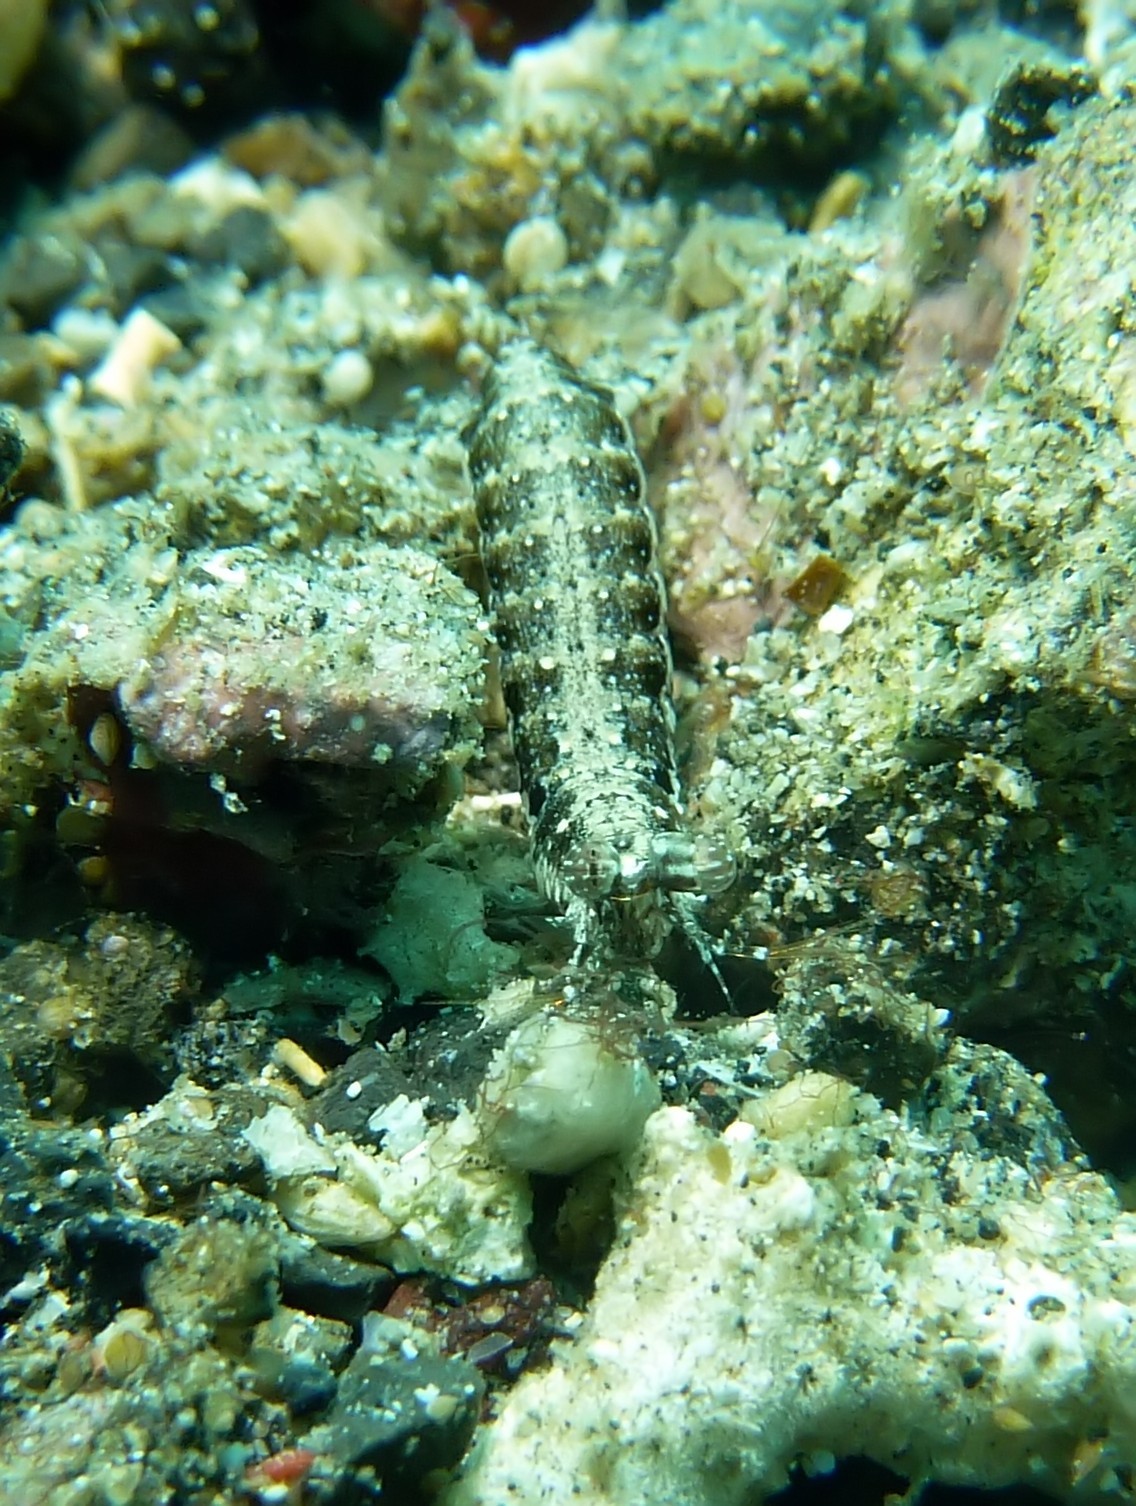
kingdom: Animalia
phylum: Arthropoda
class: Malacostraca
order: Stomatopoda
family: Pseudosquillidae
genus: Pseudosquilla
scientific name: Pseudosquilla ciliata
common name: Ciliated false squilla
